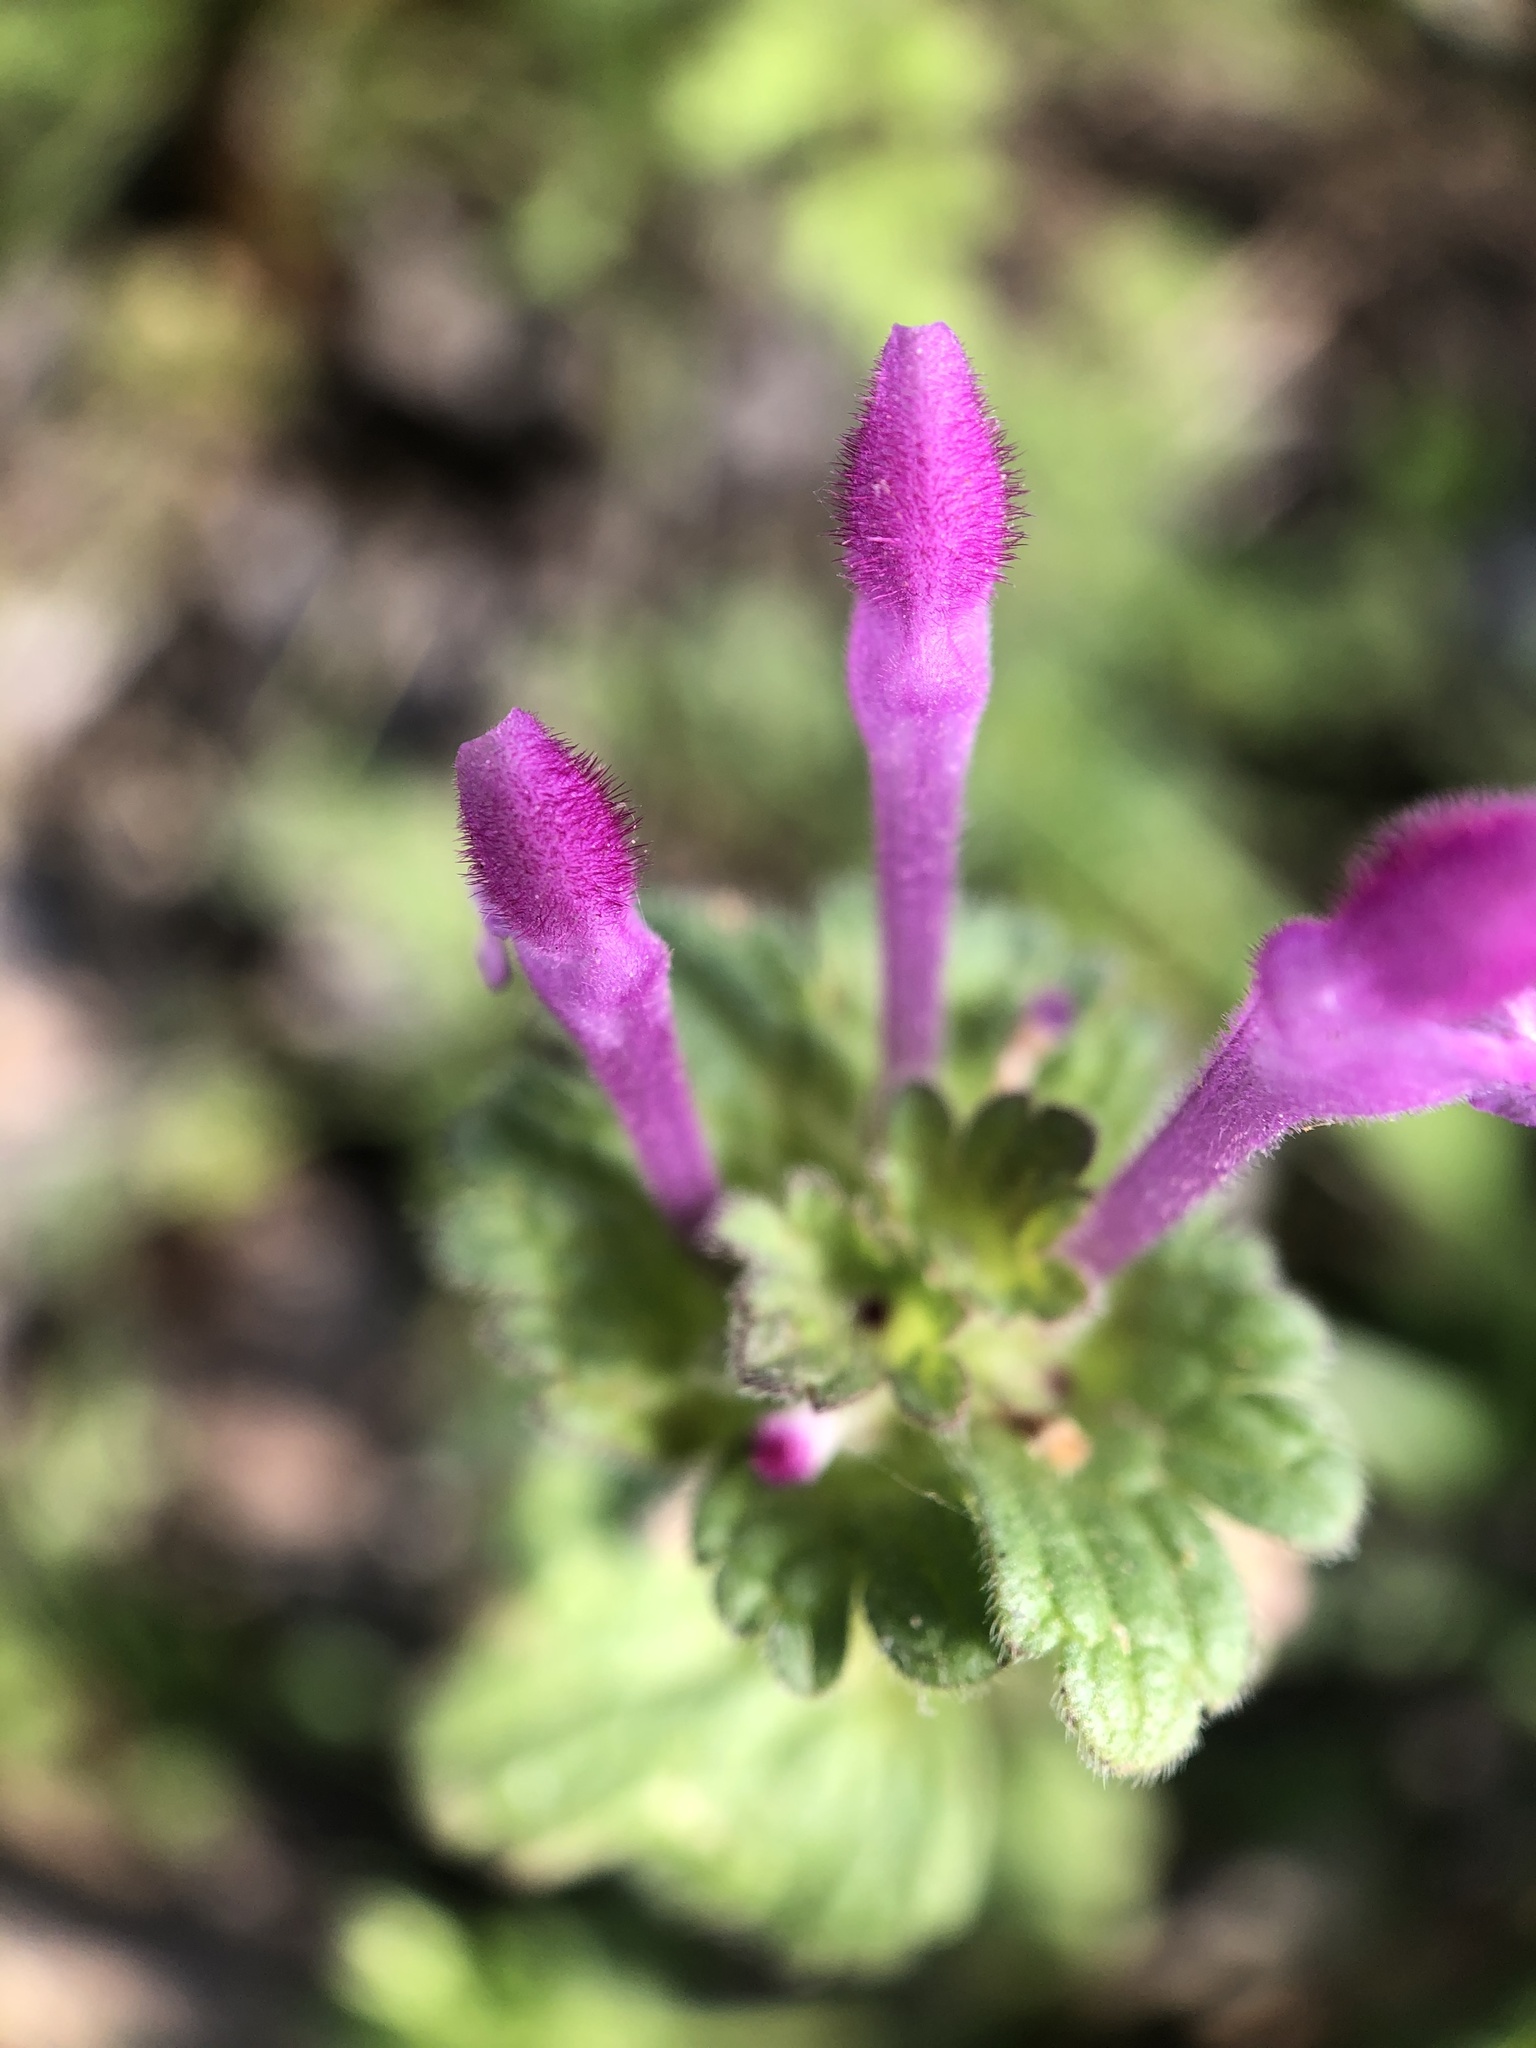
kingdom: Plantae
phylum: Tracheophyta
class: Magnoliopsida
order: Lamiales
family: Lamiaceae
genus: Lamium
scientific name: Lamium amplexicaule
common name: Henbit dead-nettle
